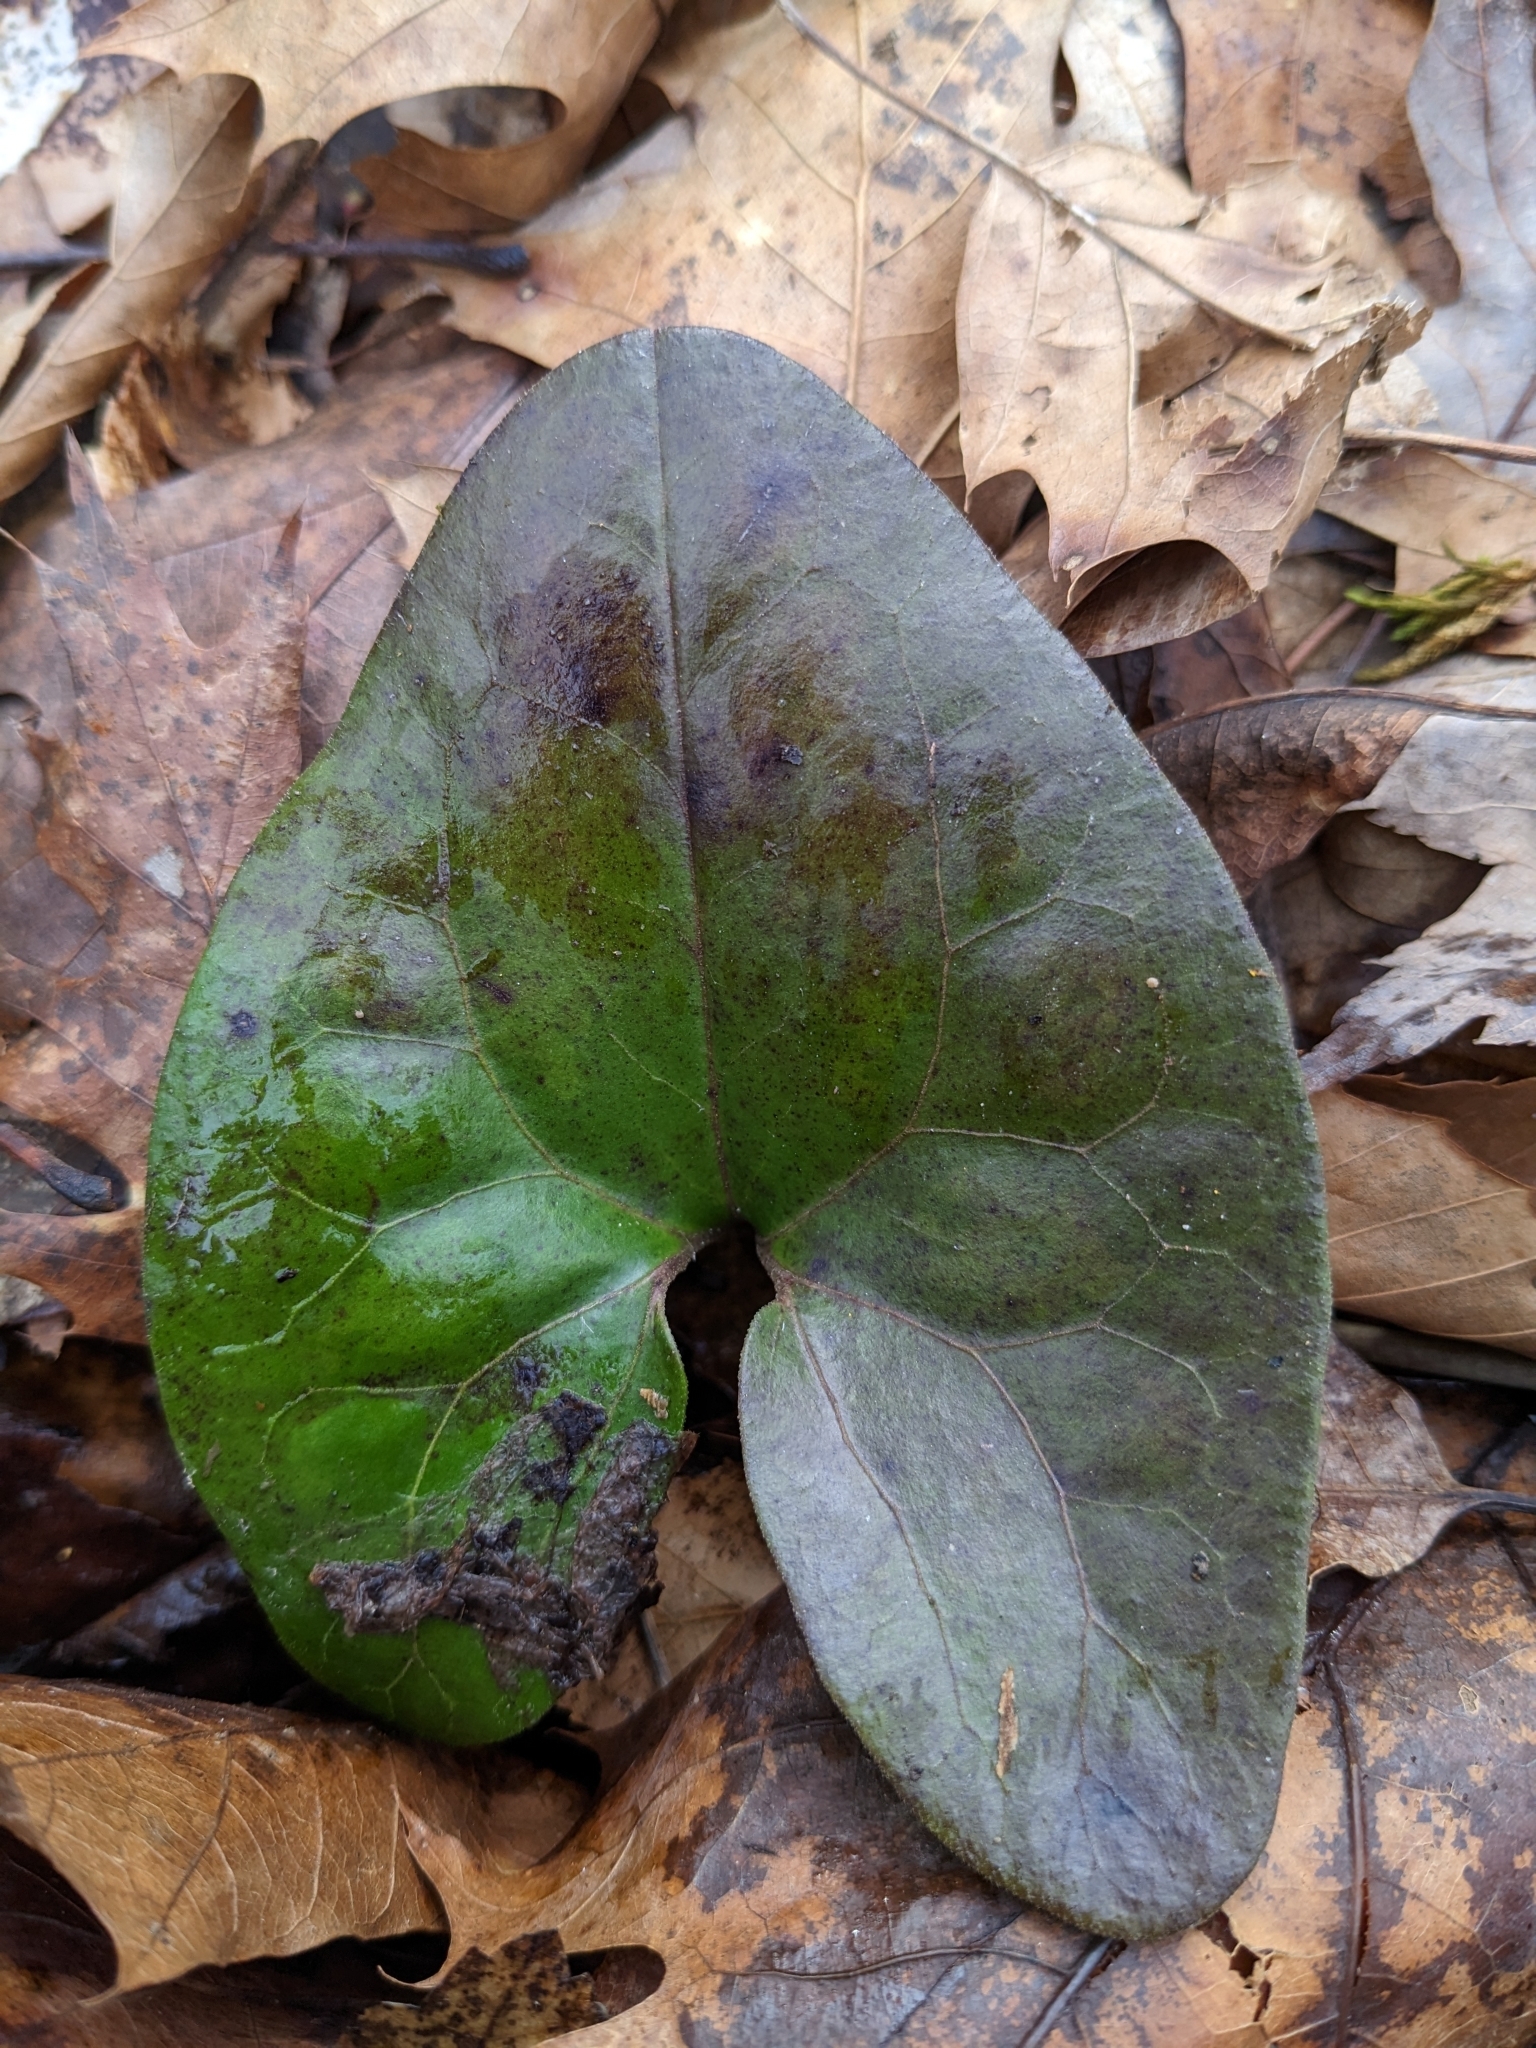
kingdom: Plantae
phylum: Tracheophyta
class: Magnoliopsida
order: Piperales
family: Aristolochiaceae
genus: Hexastylis
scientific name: Hexastylis arifolia
